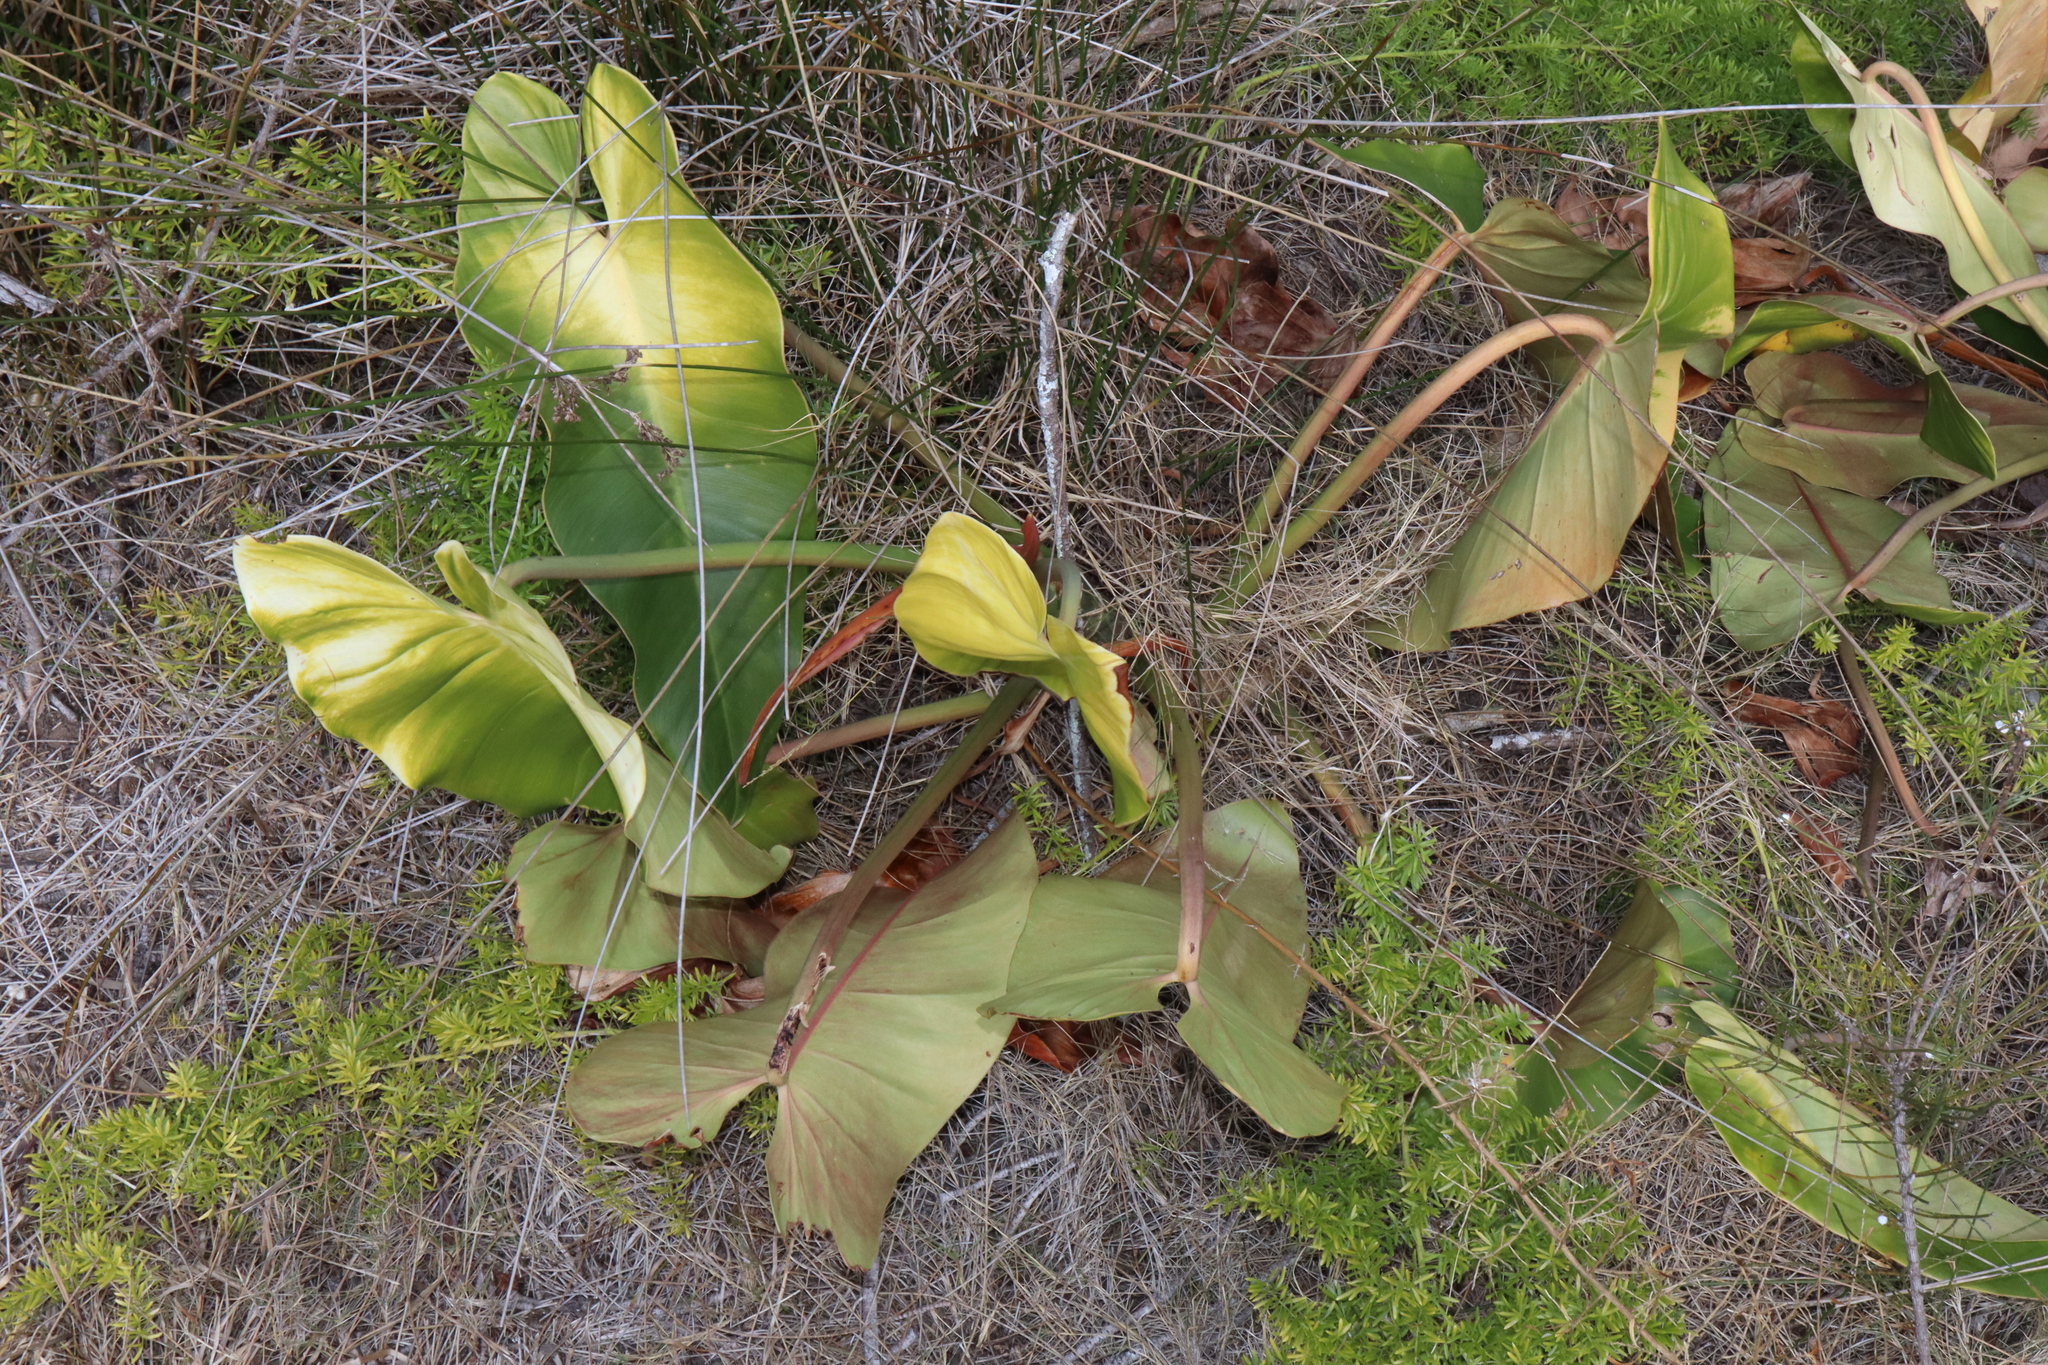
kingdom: Plantae
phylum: Tracheophyta
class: Liliopsida
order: Alismatales
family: Araceae
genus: Philodendron
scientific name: Philodendron erubescens
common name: Philodendron
